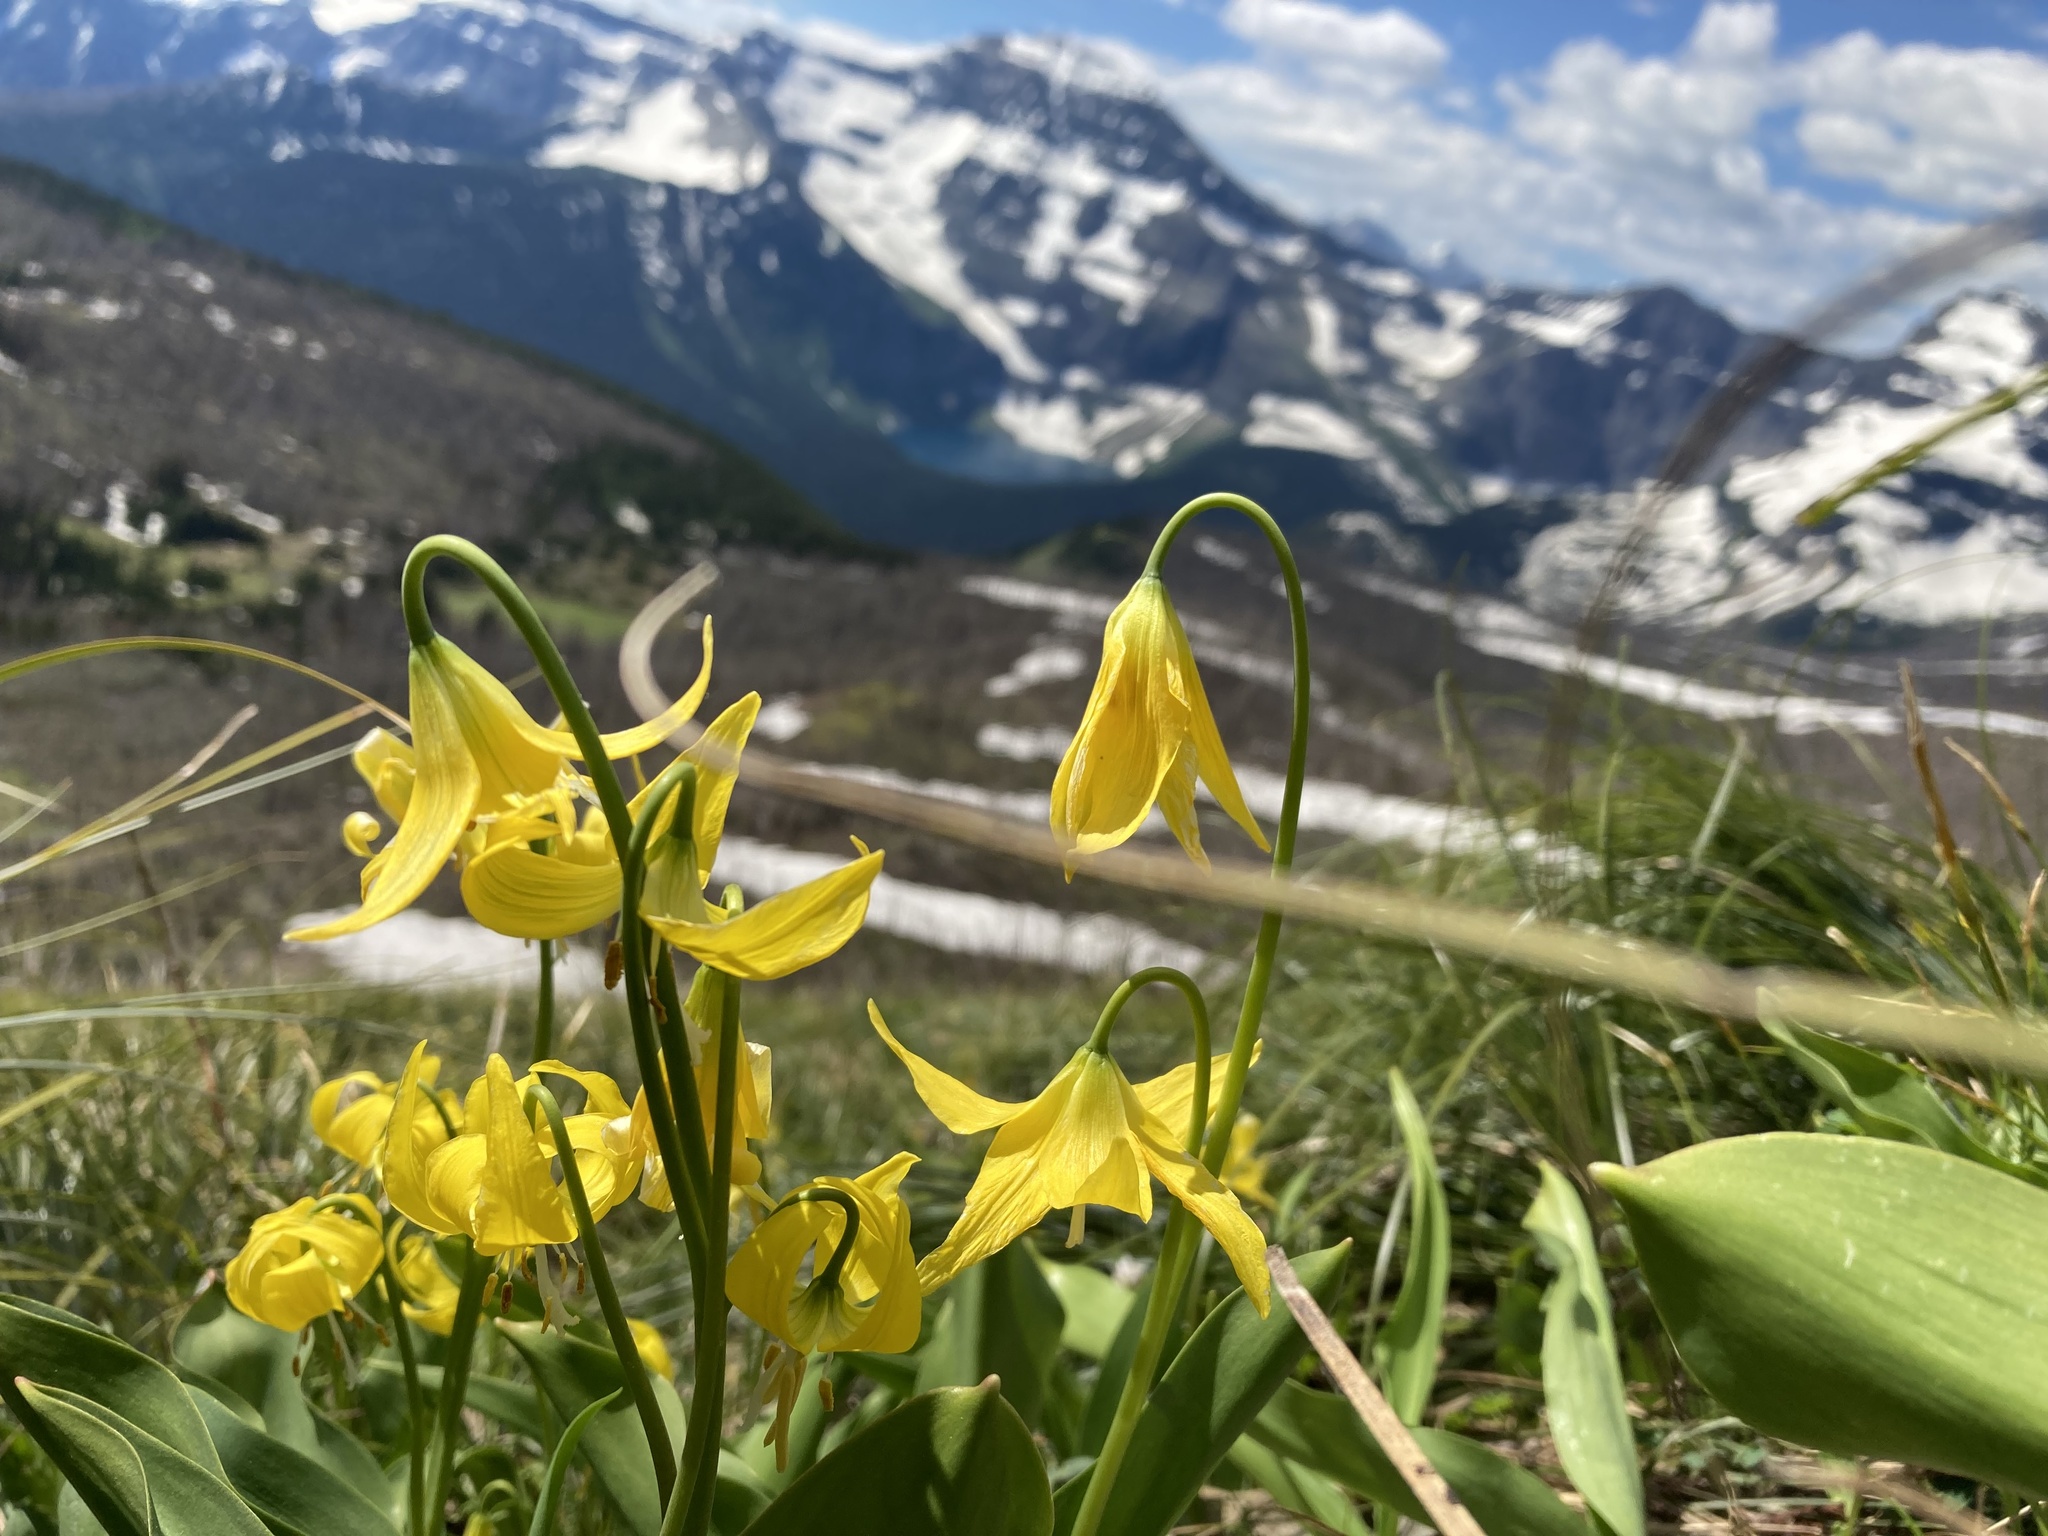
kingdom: Plantae
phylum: Tracheophyta
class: Liliopsida
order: Liliales
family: Liliaceae
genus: Erythronium
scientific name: Erythronium grandiflorum
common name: Avalanche-lily
